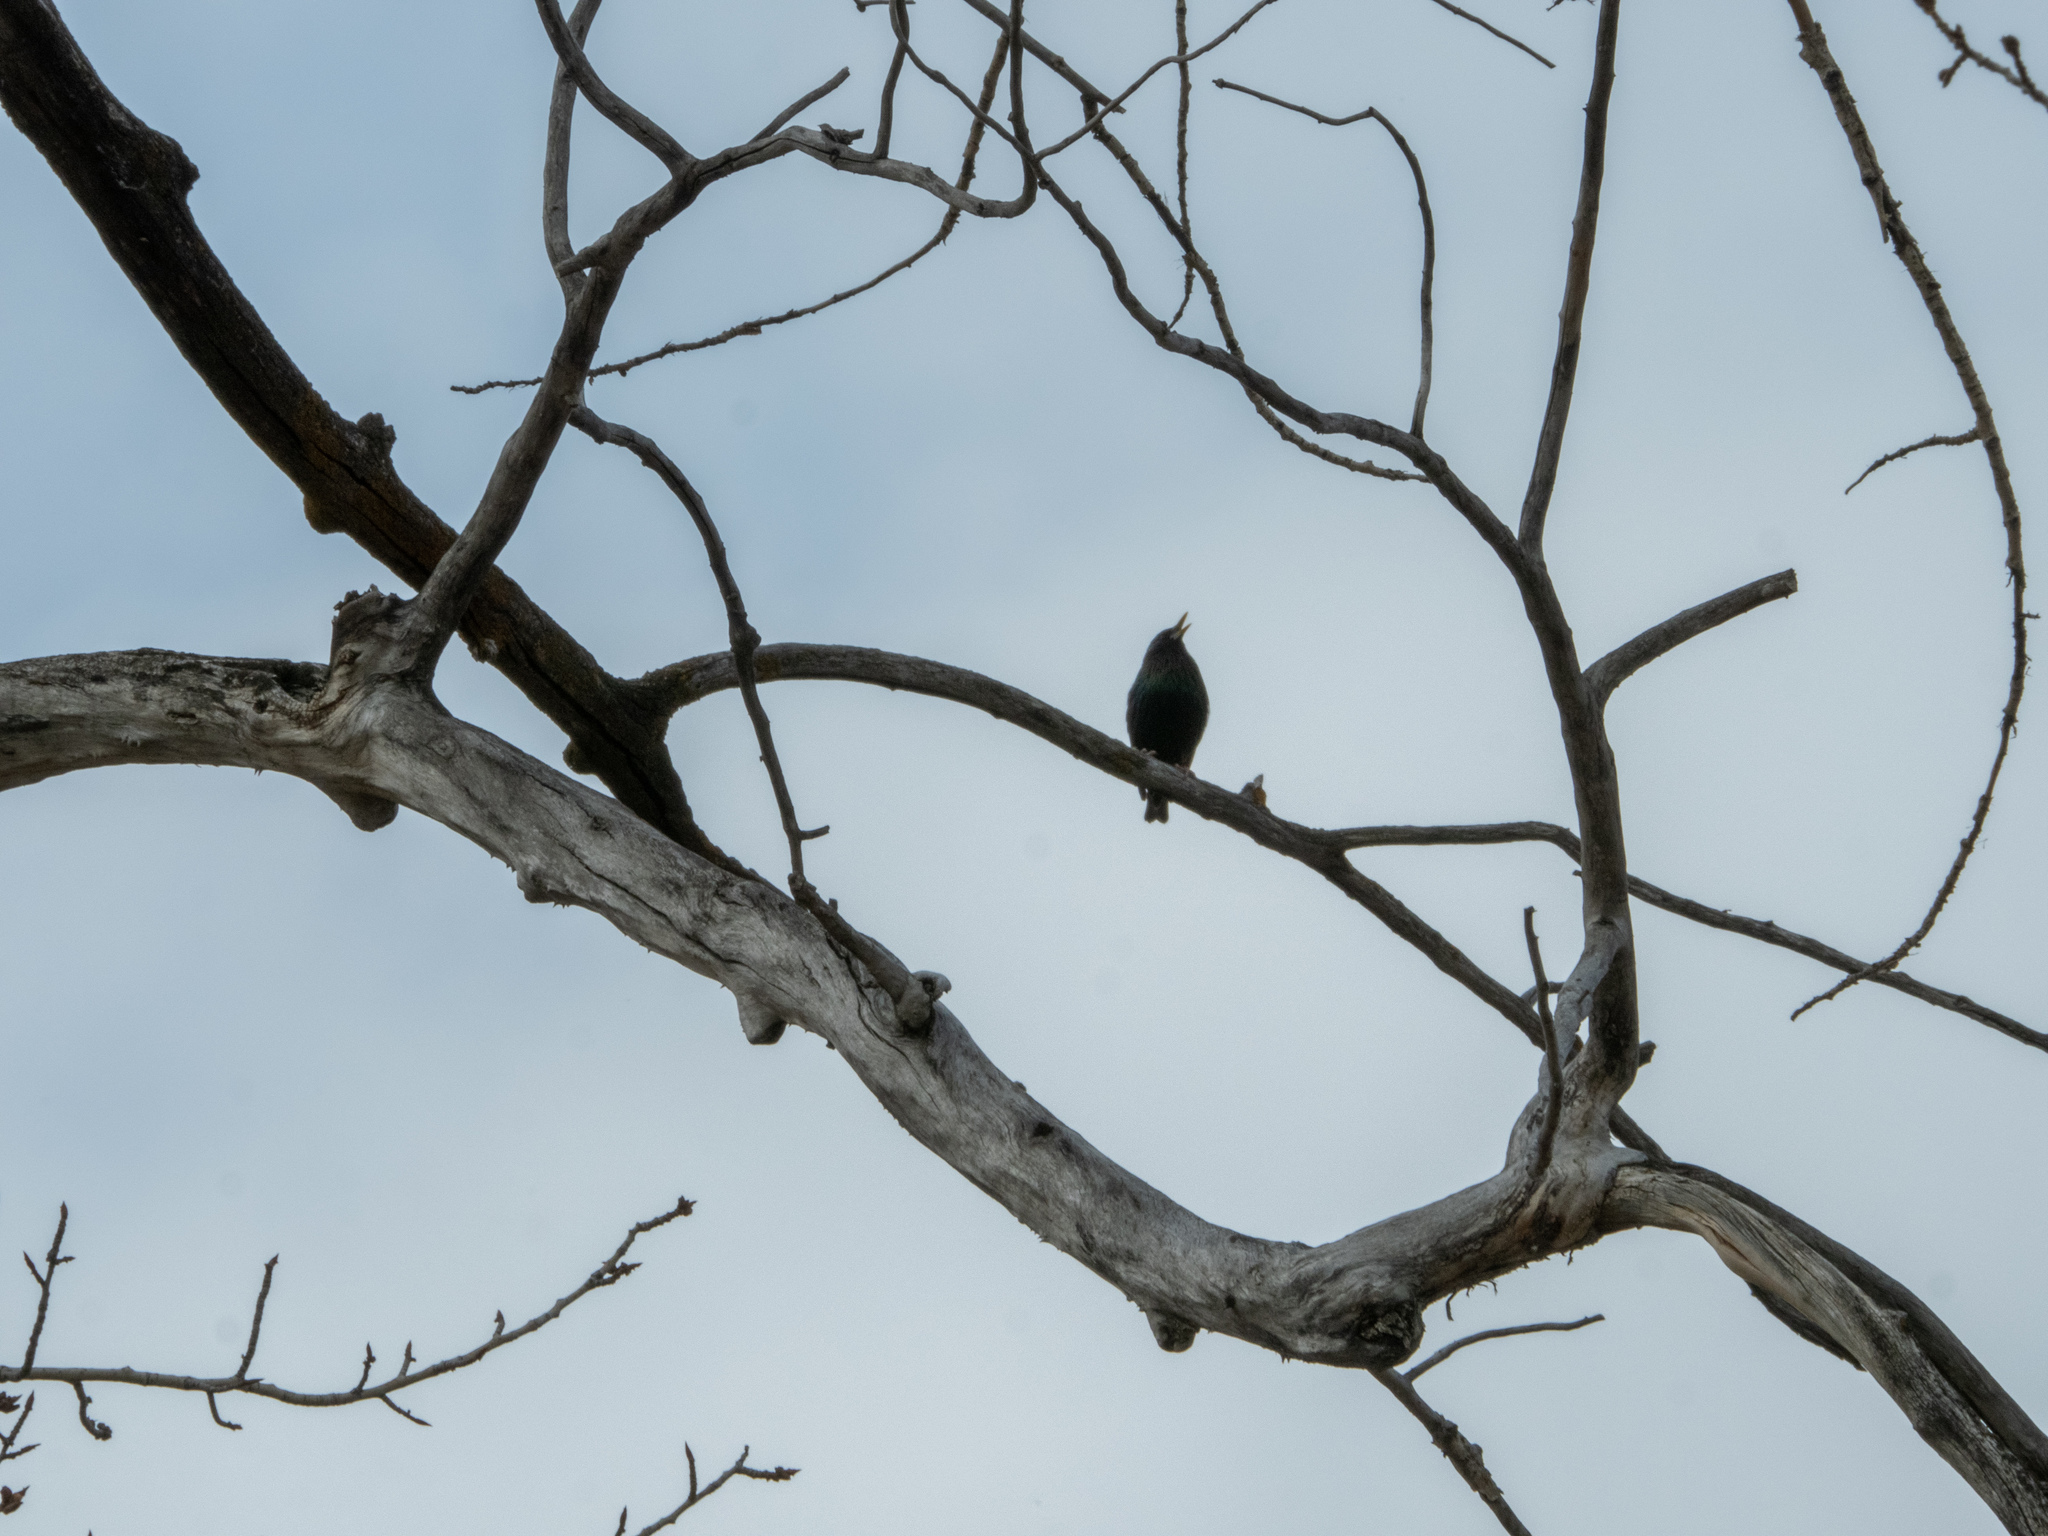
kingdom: Animalia
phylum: Chordata
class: Aves
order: Passeriformes
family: Sturnidae
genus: Sturnus
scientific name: Sturnus vulgaris
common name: Common starling
